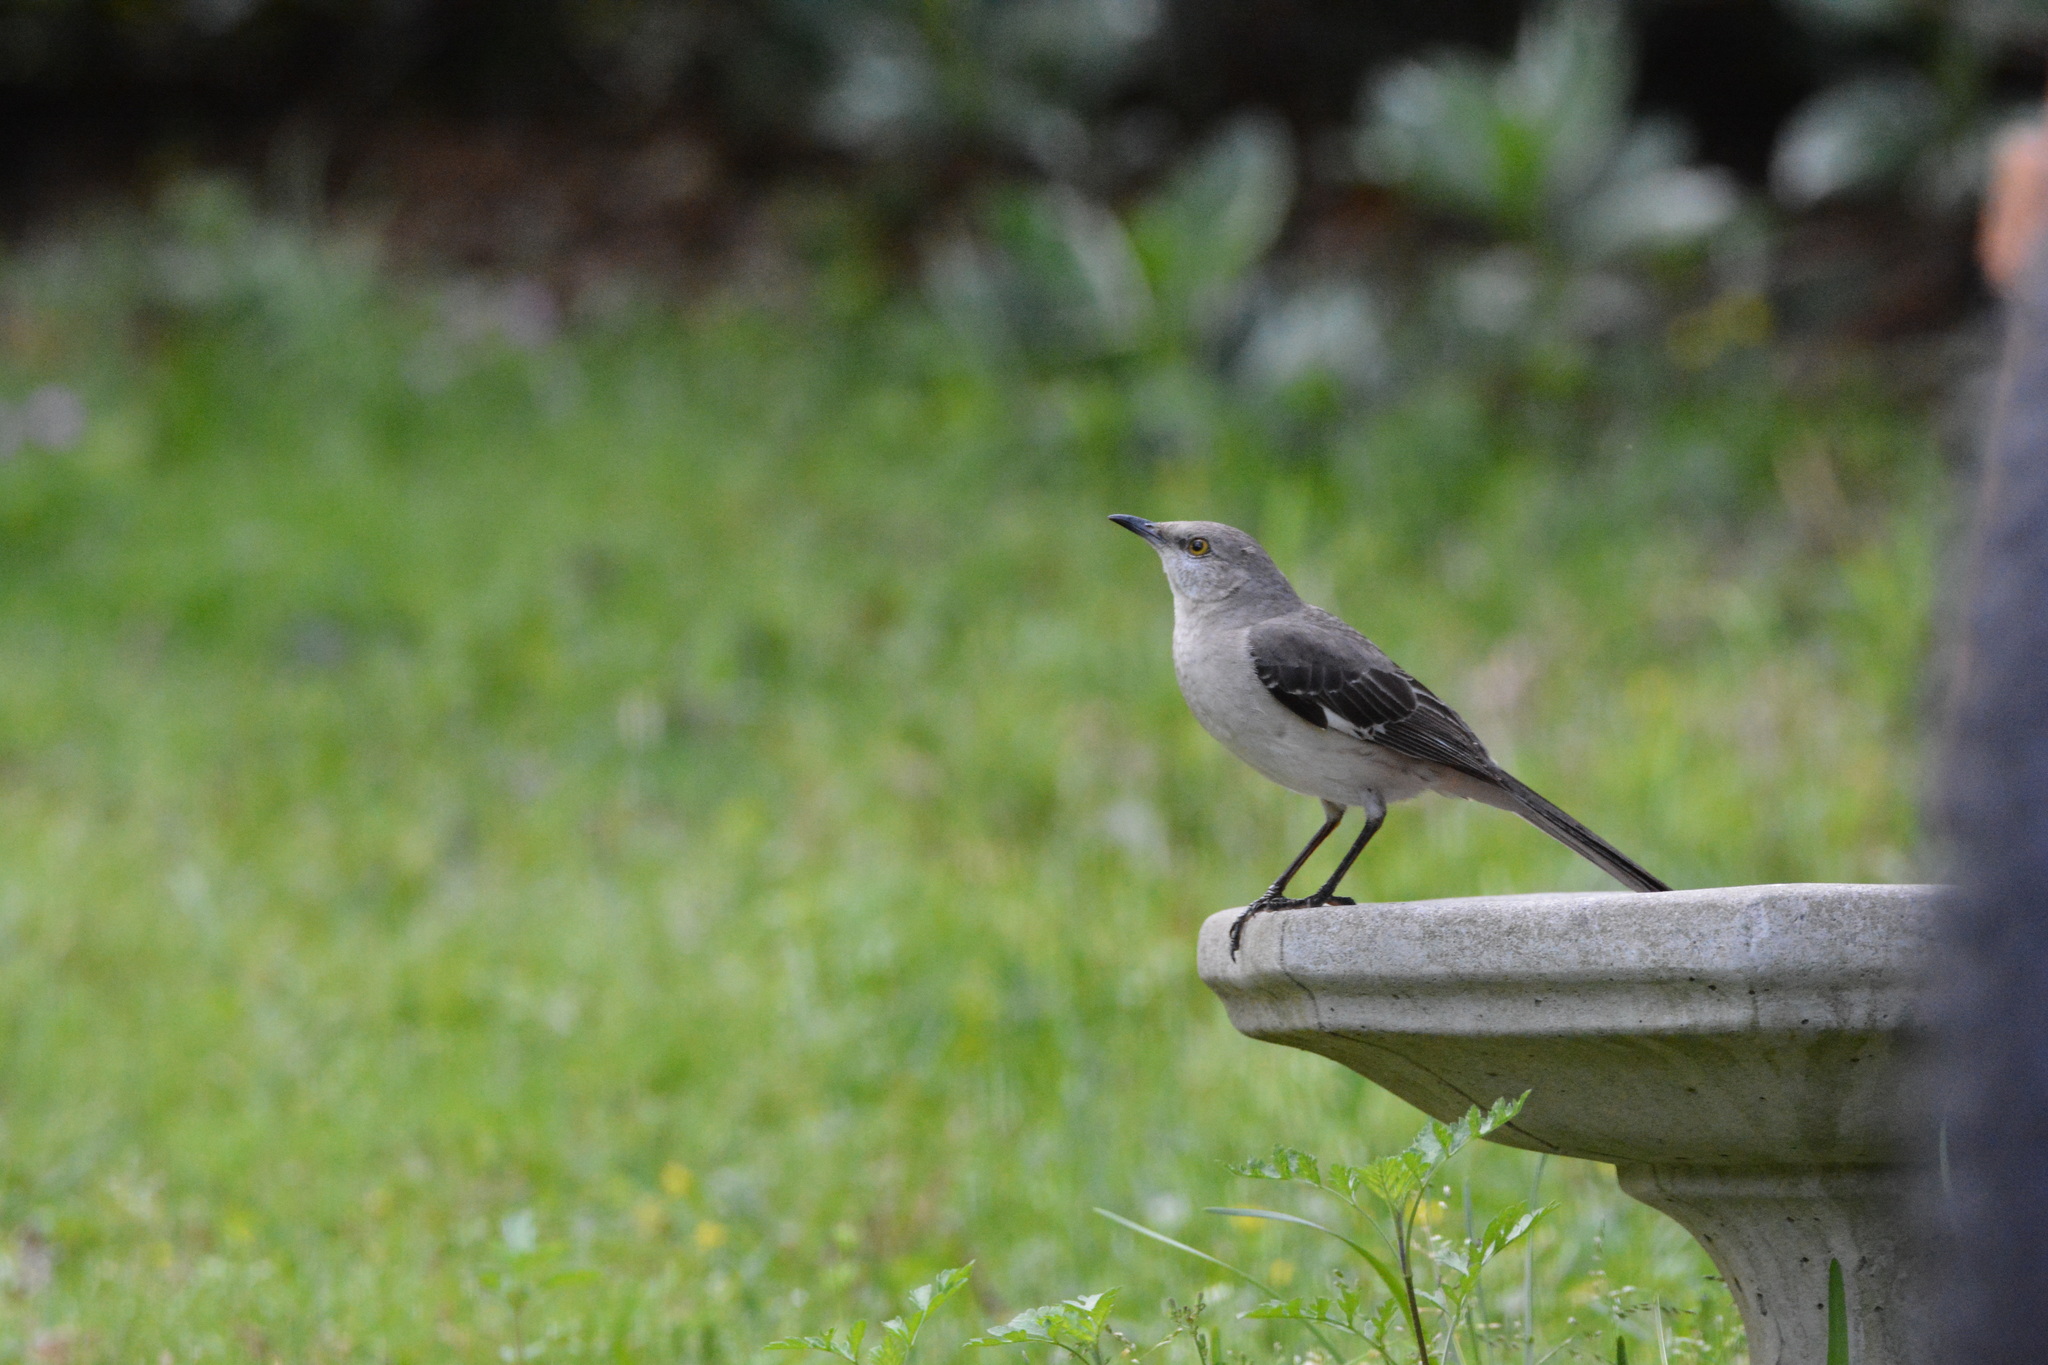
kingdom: Animalia
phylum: Chordata
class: Aves
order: Passeriformes
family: Mimidae
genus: Mimus
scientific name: Mimus polyglottos
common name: Northern mockingbird
